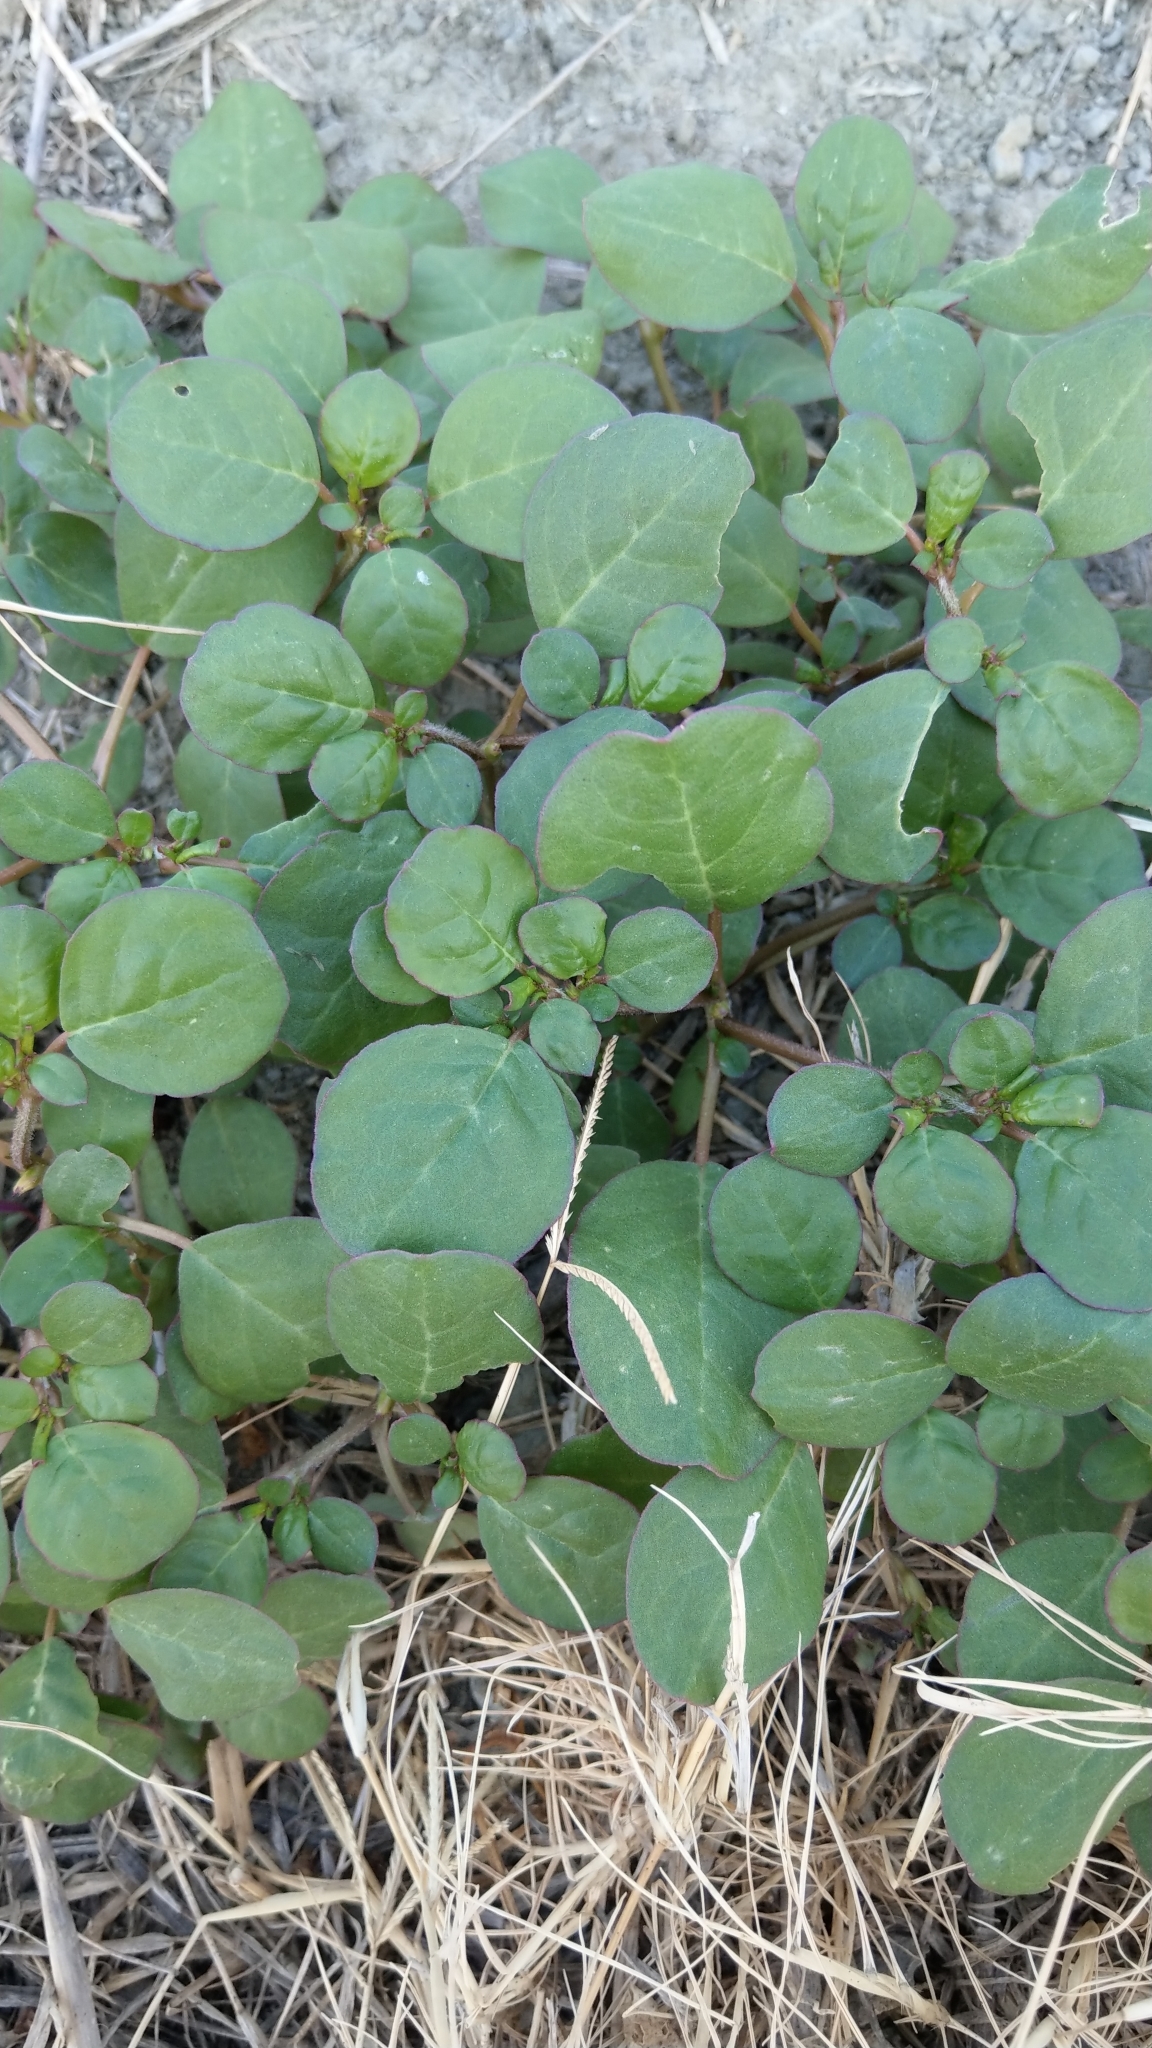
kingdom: Plantae
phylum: Tracheophyta
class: Magnoliopsida
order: Caryophyllales
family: Nyctaginaceae
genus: Boerhavia
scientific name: Boerhavia coccinea
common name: Scarlet spiderling
